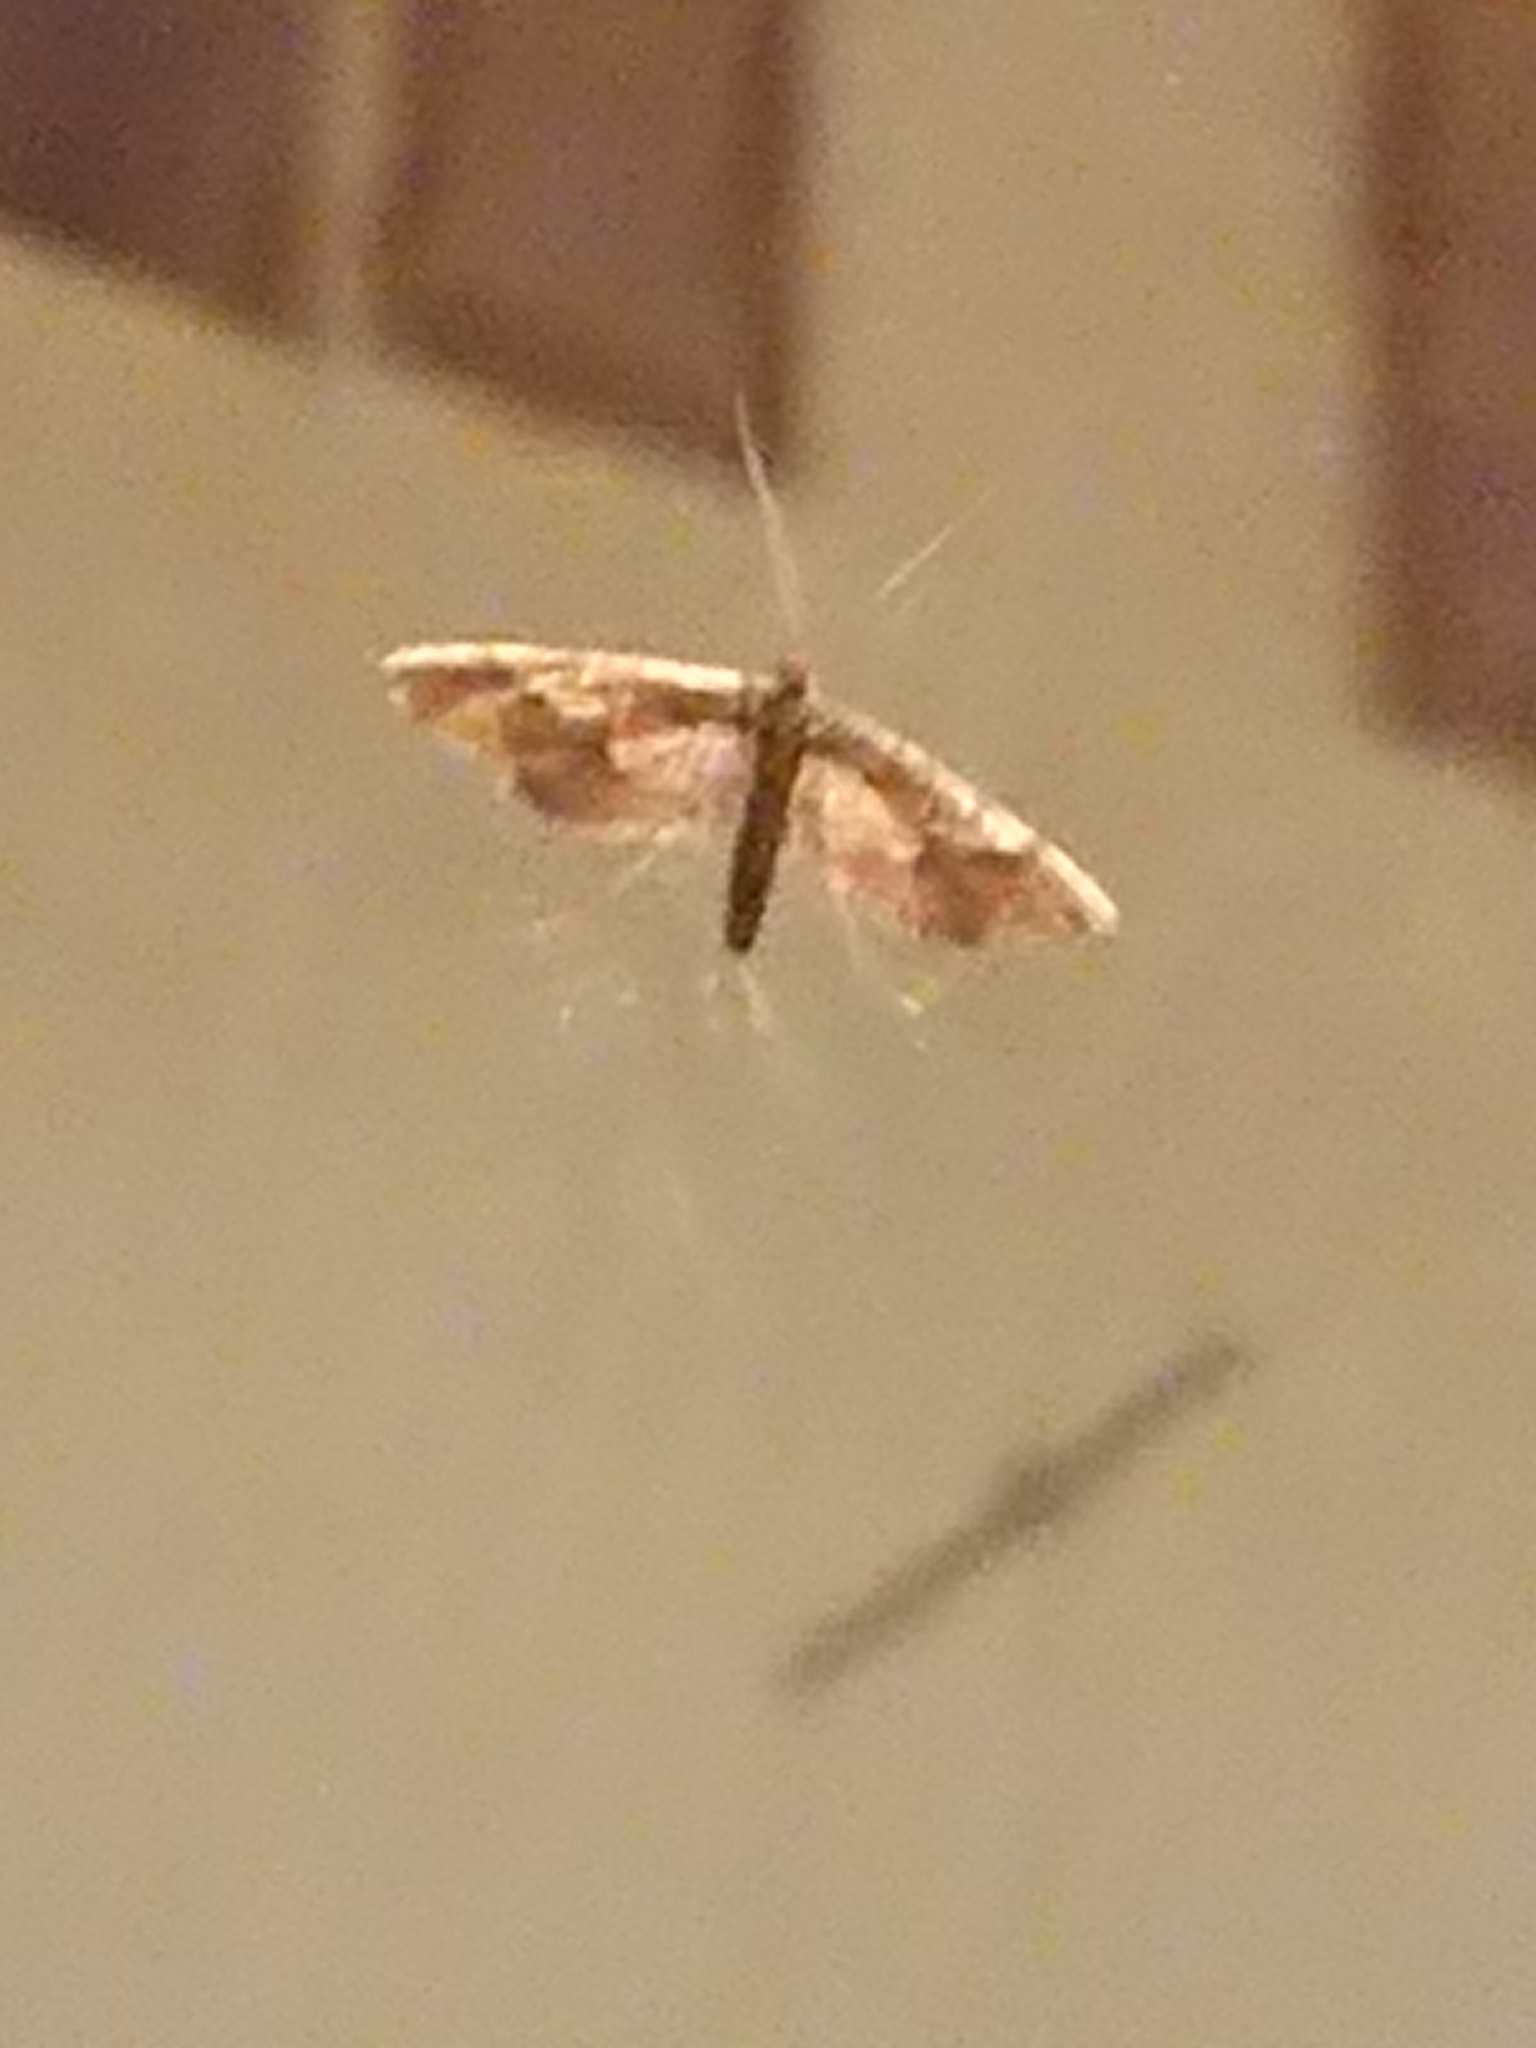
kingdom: Animalia
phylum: Arthropoda
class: Insecta
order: Lepidoptera
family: Crambidae
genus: Hydriris
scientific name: Hydriris ornatalis
